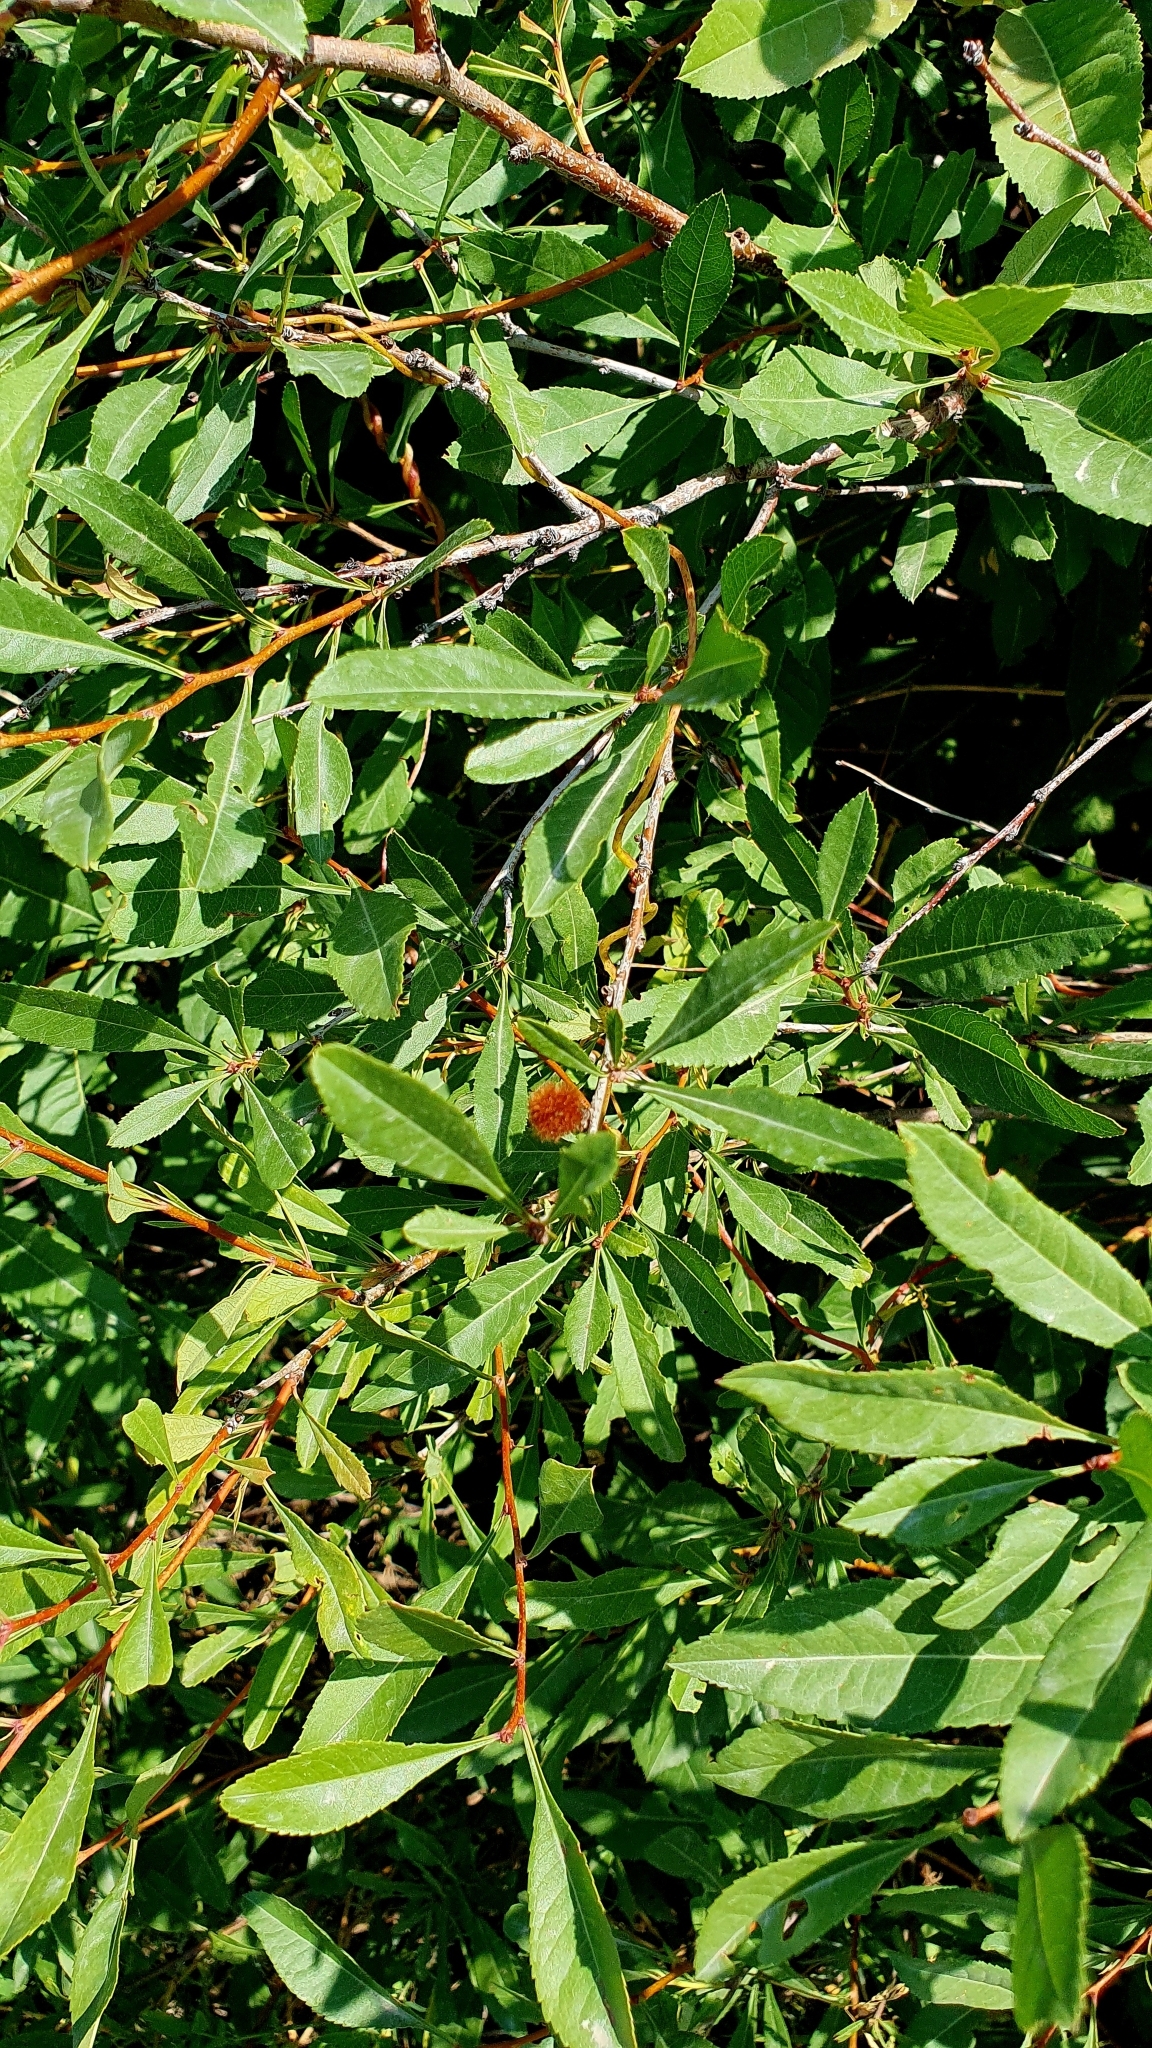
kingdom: Plantae
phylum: Tracheophyta
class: Magnoliopsida
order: Rosales
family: Rosaceae
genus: Prunus
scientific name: Prunus tenella
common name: Dwarf russian almond
